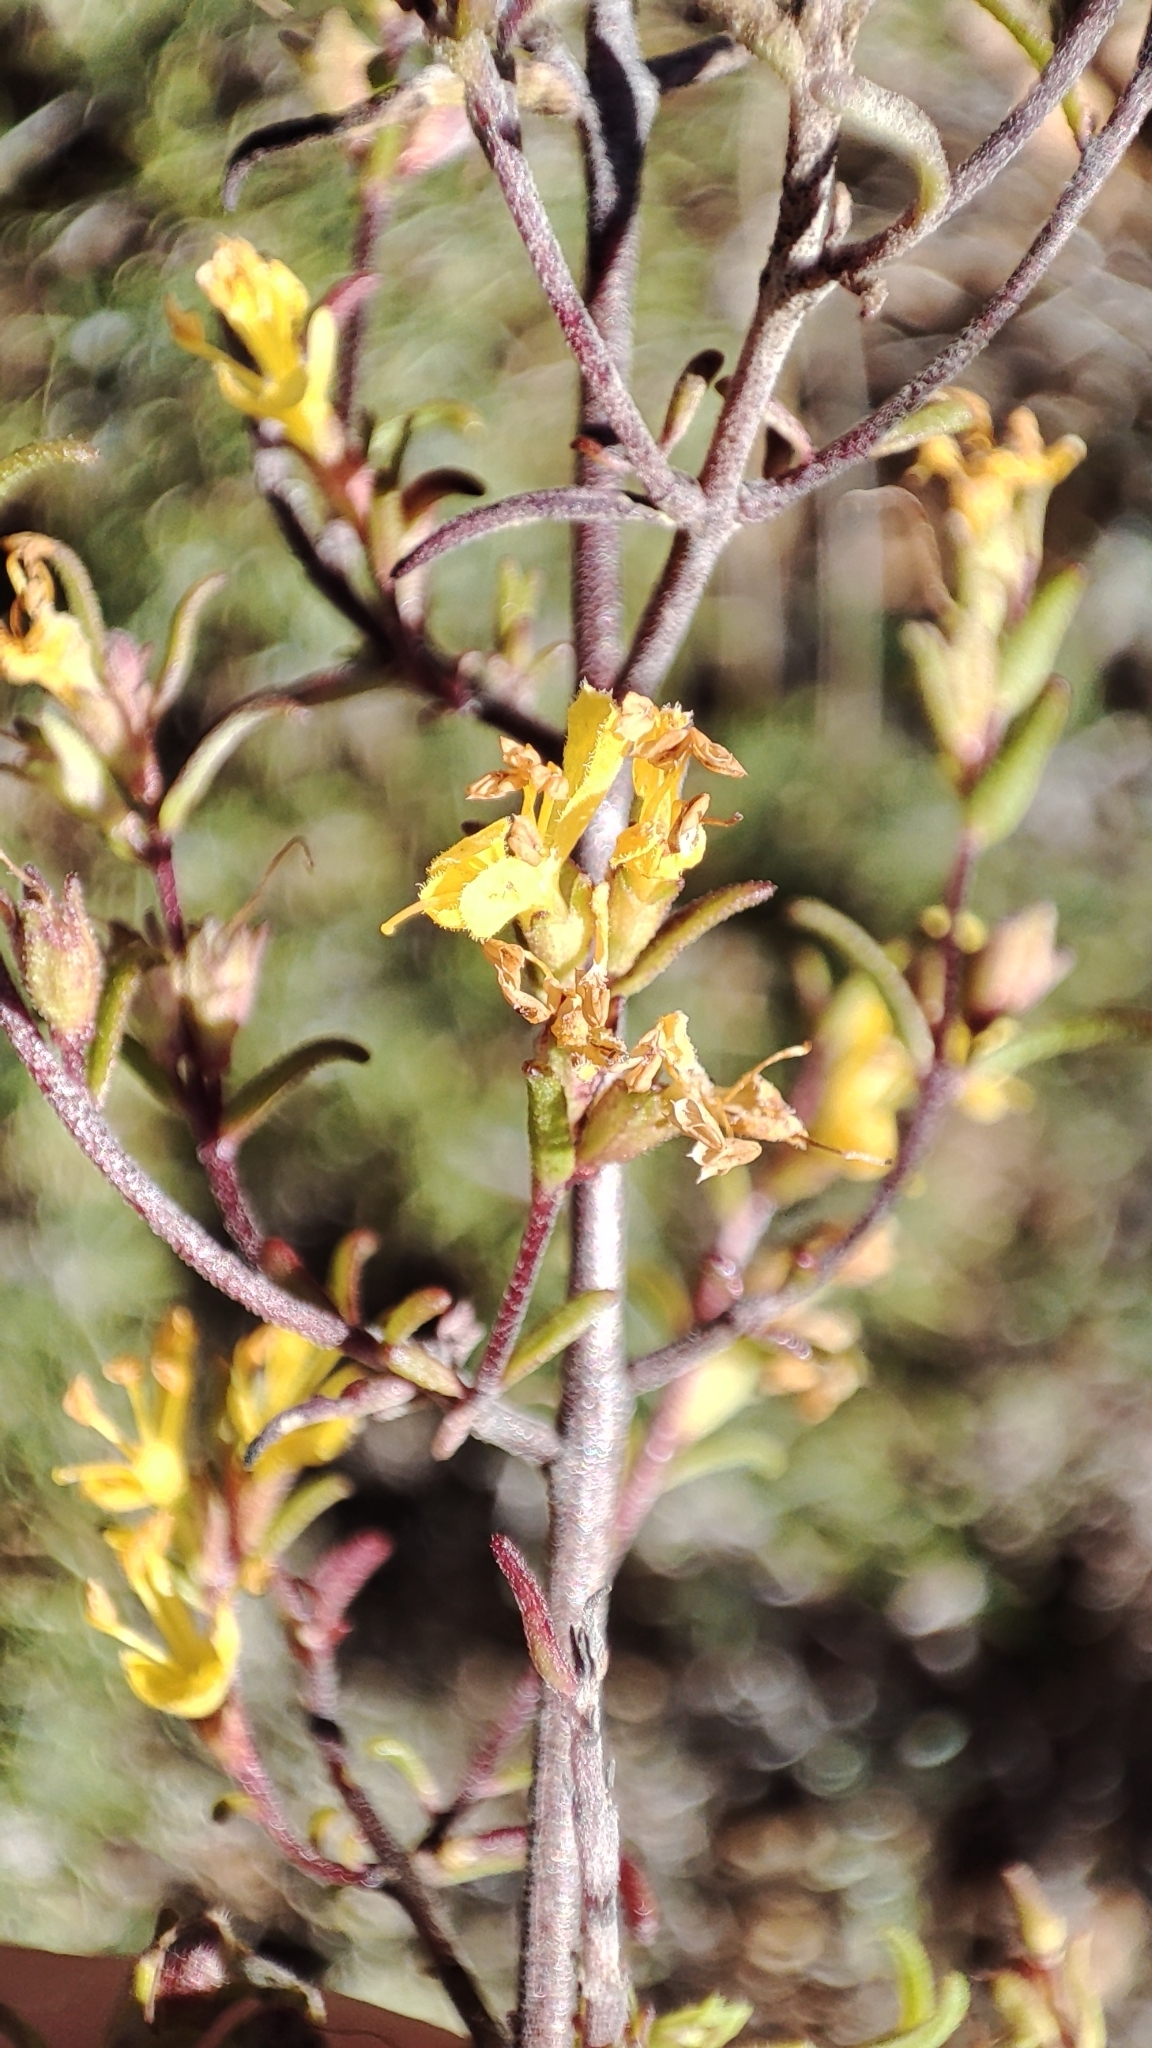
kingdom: Plantae
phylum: Tracheophyta
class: Magnoliopsida
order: Lamiales
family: Orobanchaceae
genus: Odontites
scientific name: Odontites luteus
